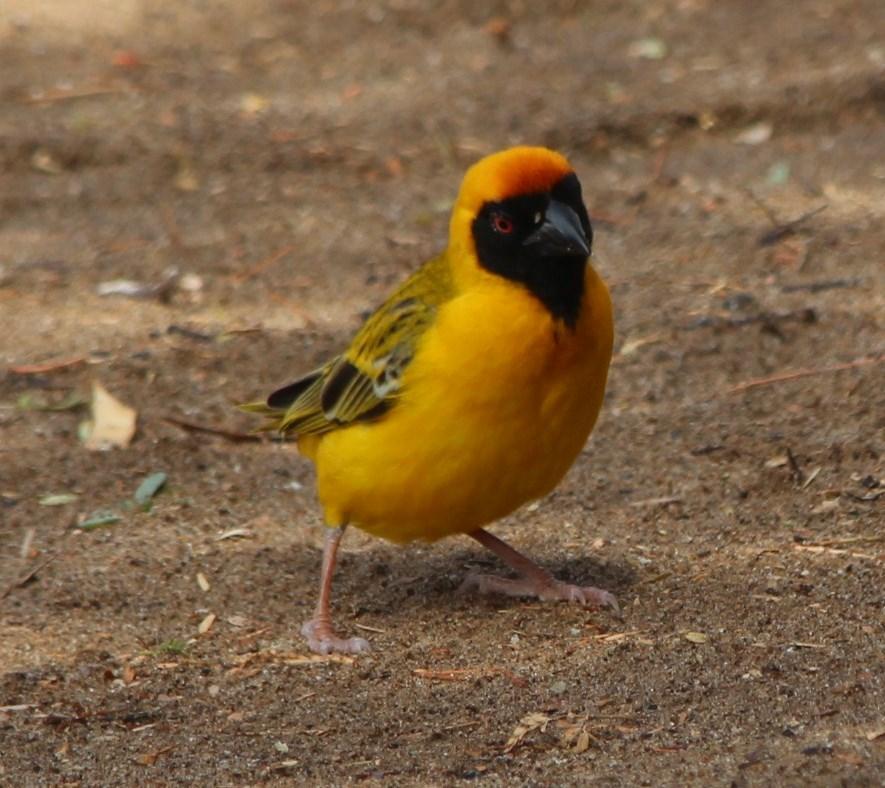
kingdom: Animalia
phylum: Chordata
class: Aves
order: Passeriformes
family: Ploceidae
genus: Ploceus
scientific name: Ploceus velatus
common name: Southern masked weaver
